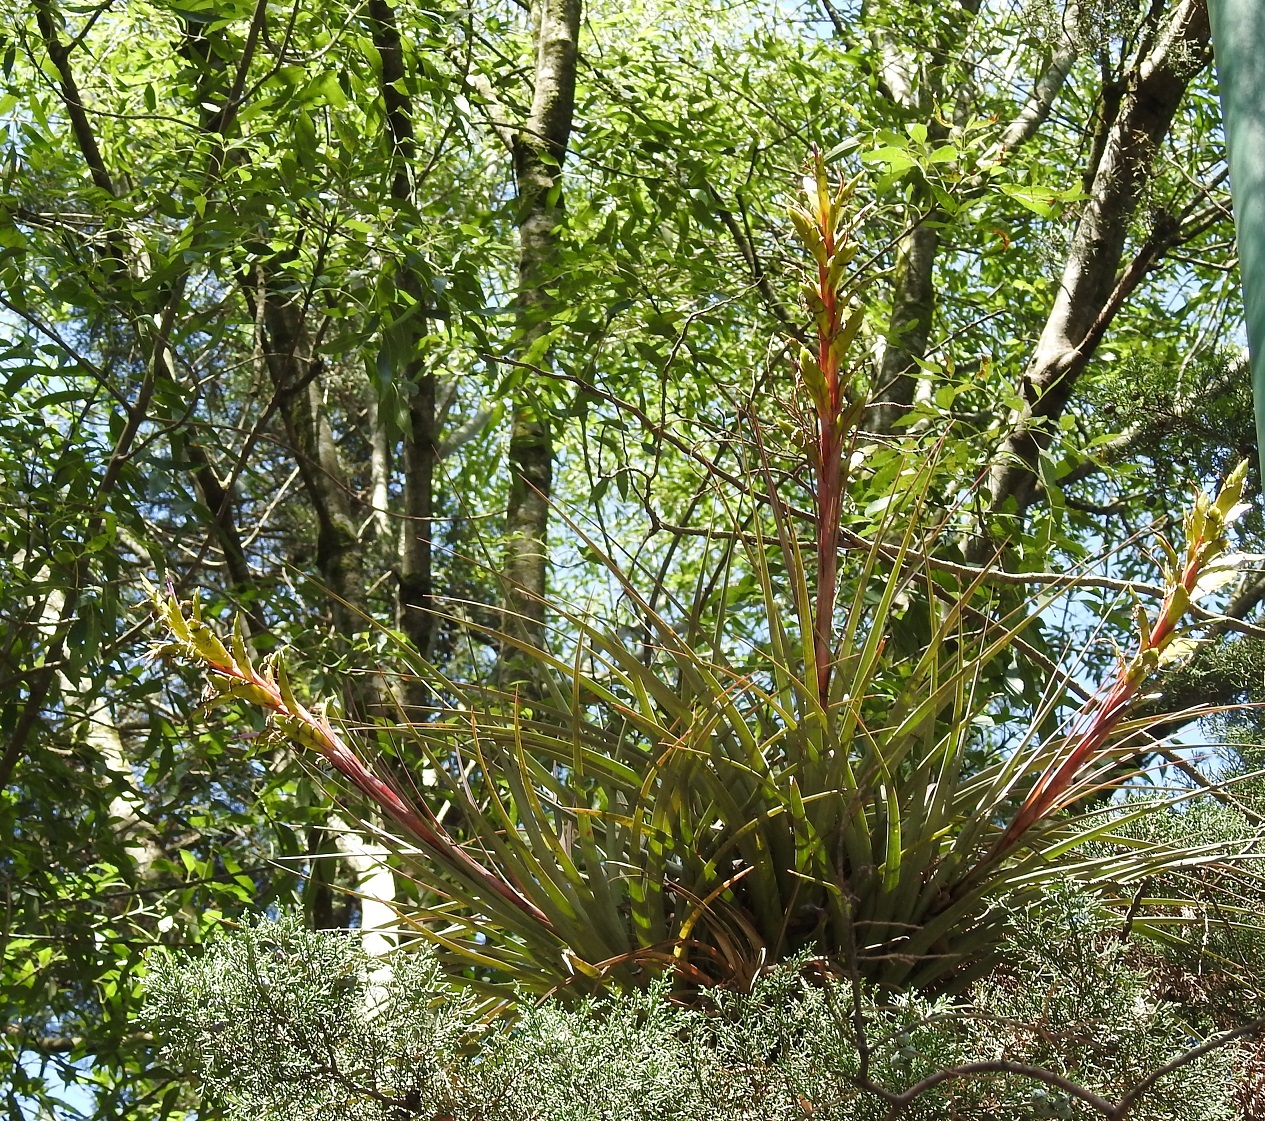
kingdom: Plantae
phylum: Tracheophyta
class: Liliopsida
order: Poales
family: Bromeliaceae
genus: Tillandsia
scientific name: Tillandsia rodrigueziana
